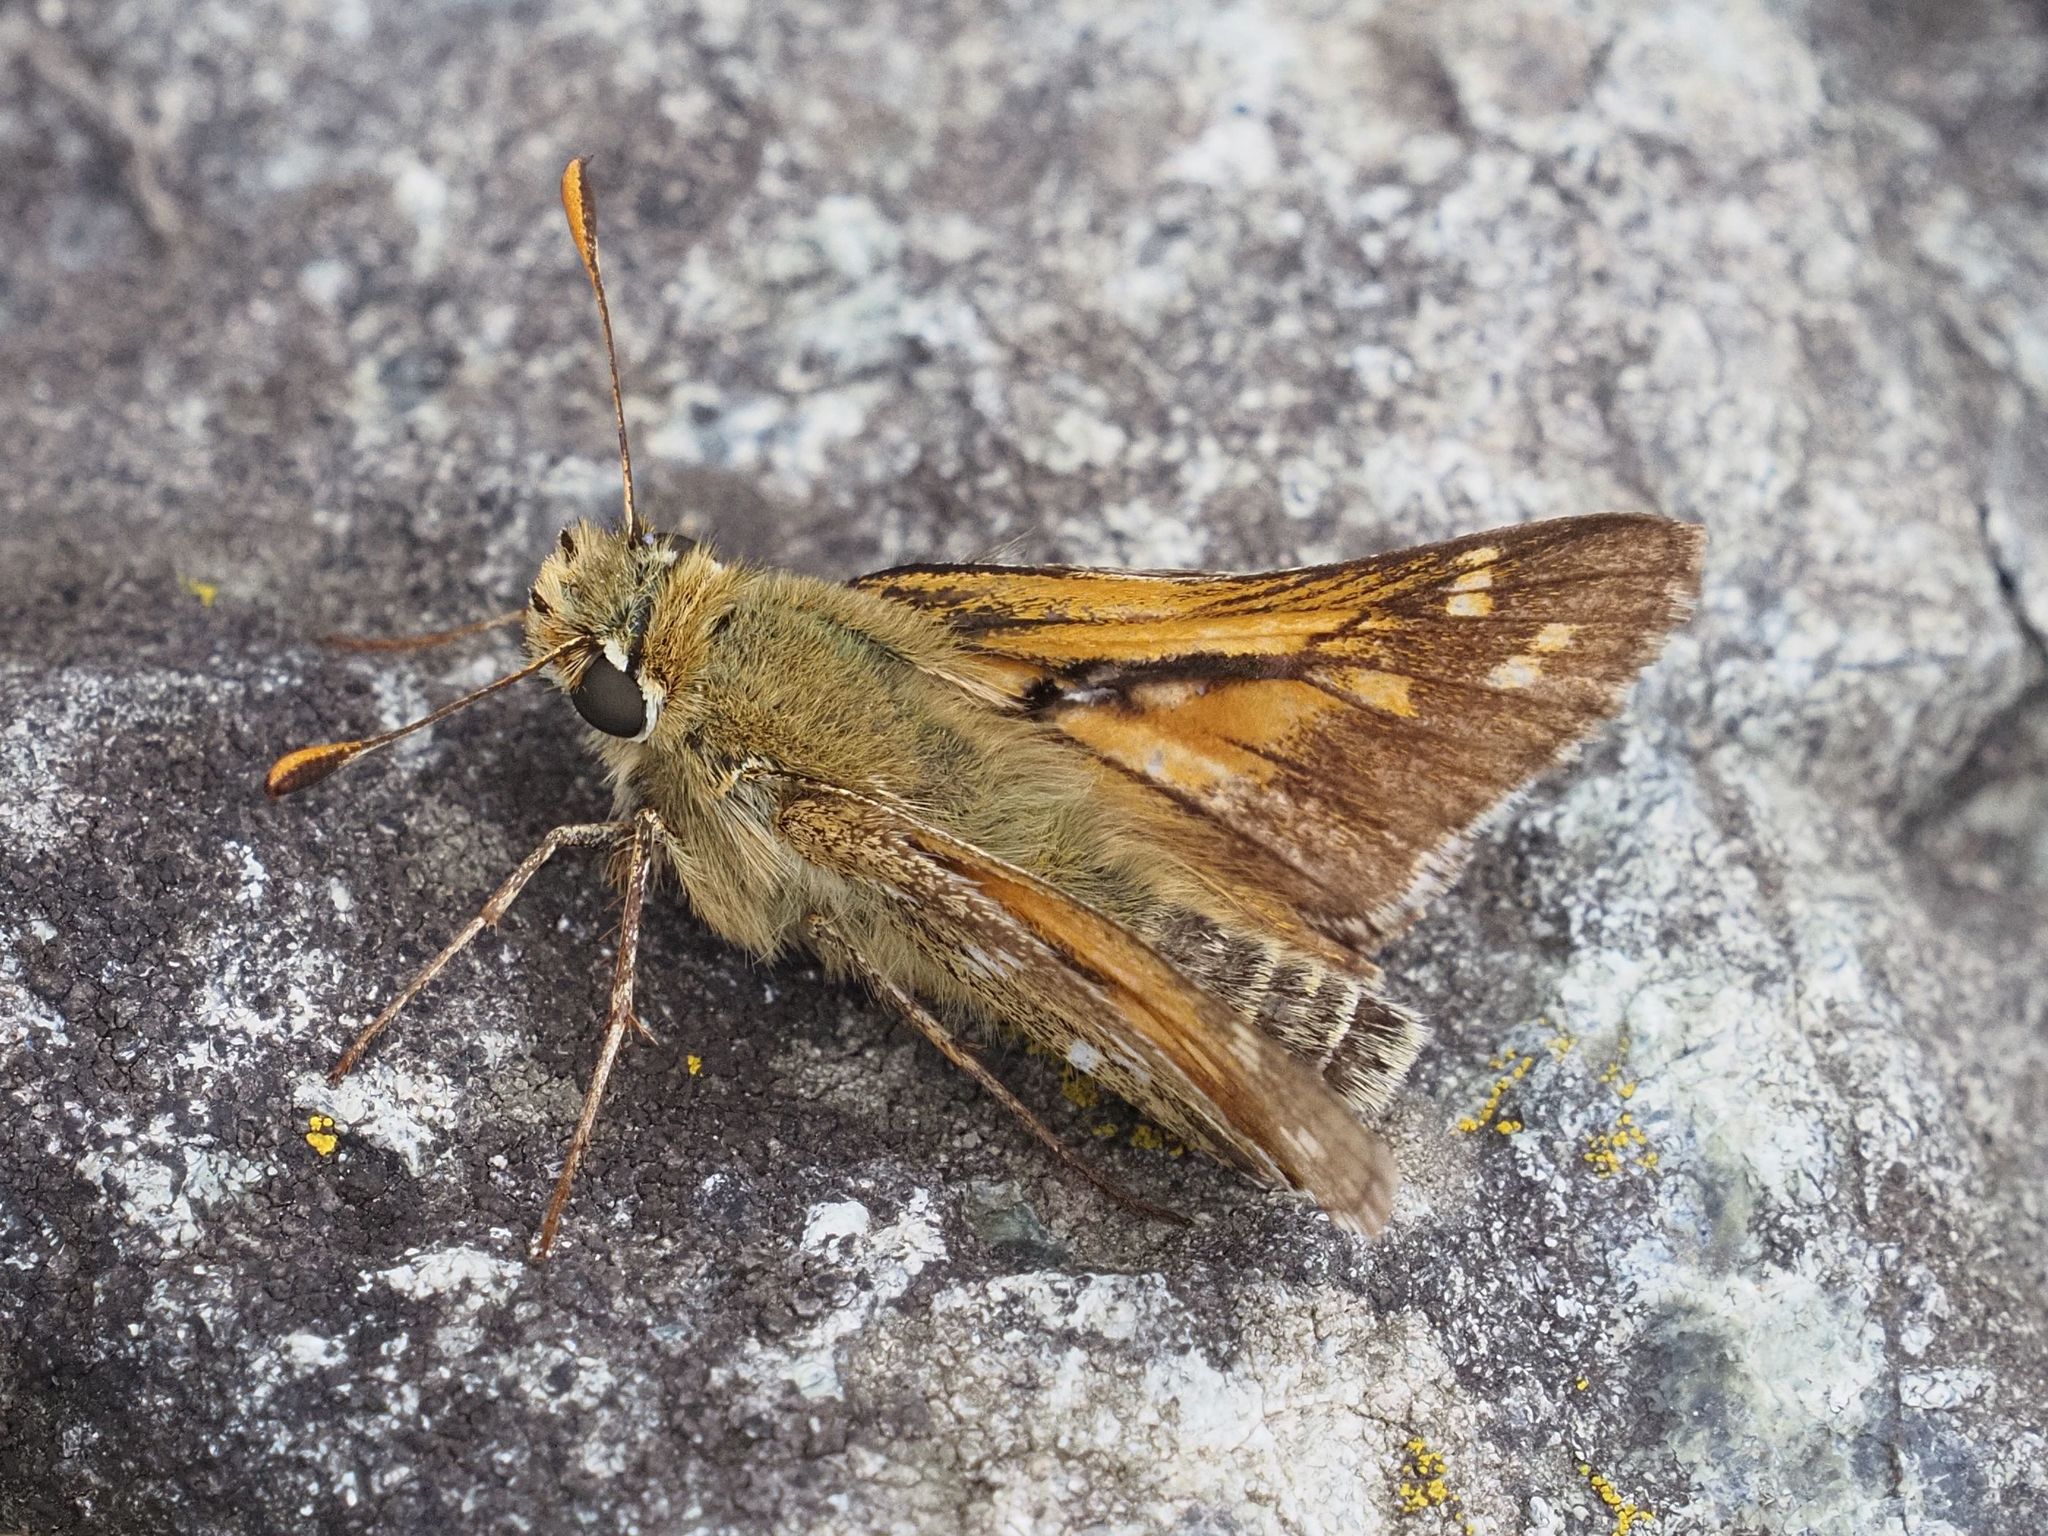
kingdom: Animalia
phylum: Arthropoda
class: Insecta
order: Lepidoptera
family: Hesperiidae
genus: Hesperia
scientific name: Hesperia comma
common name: Common branded skipper
